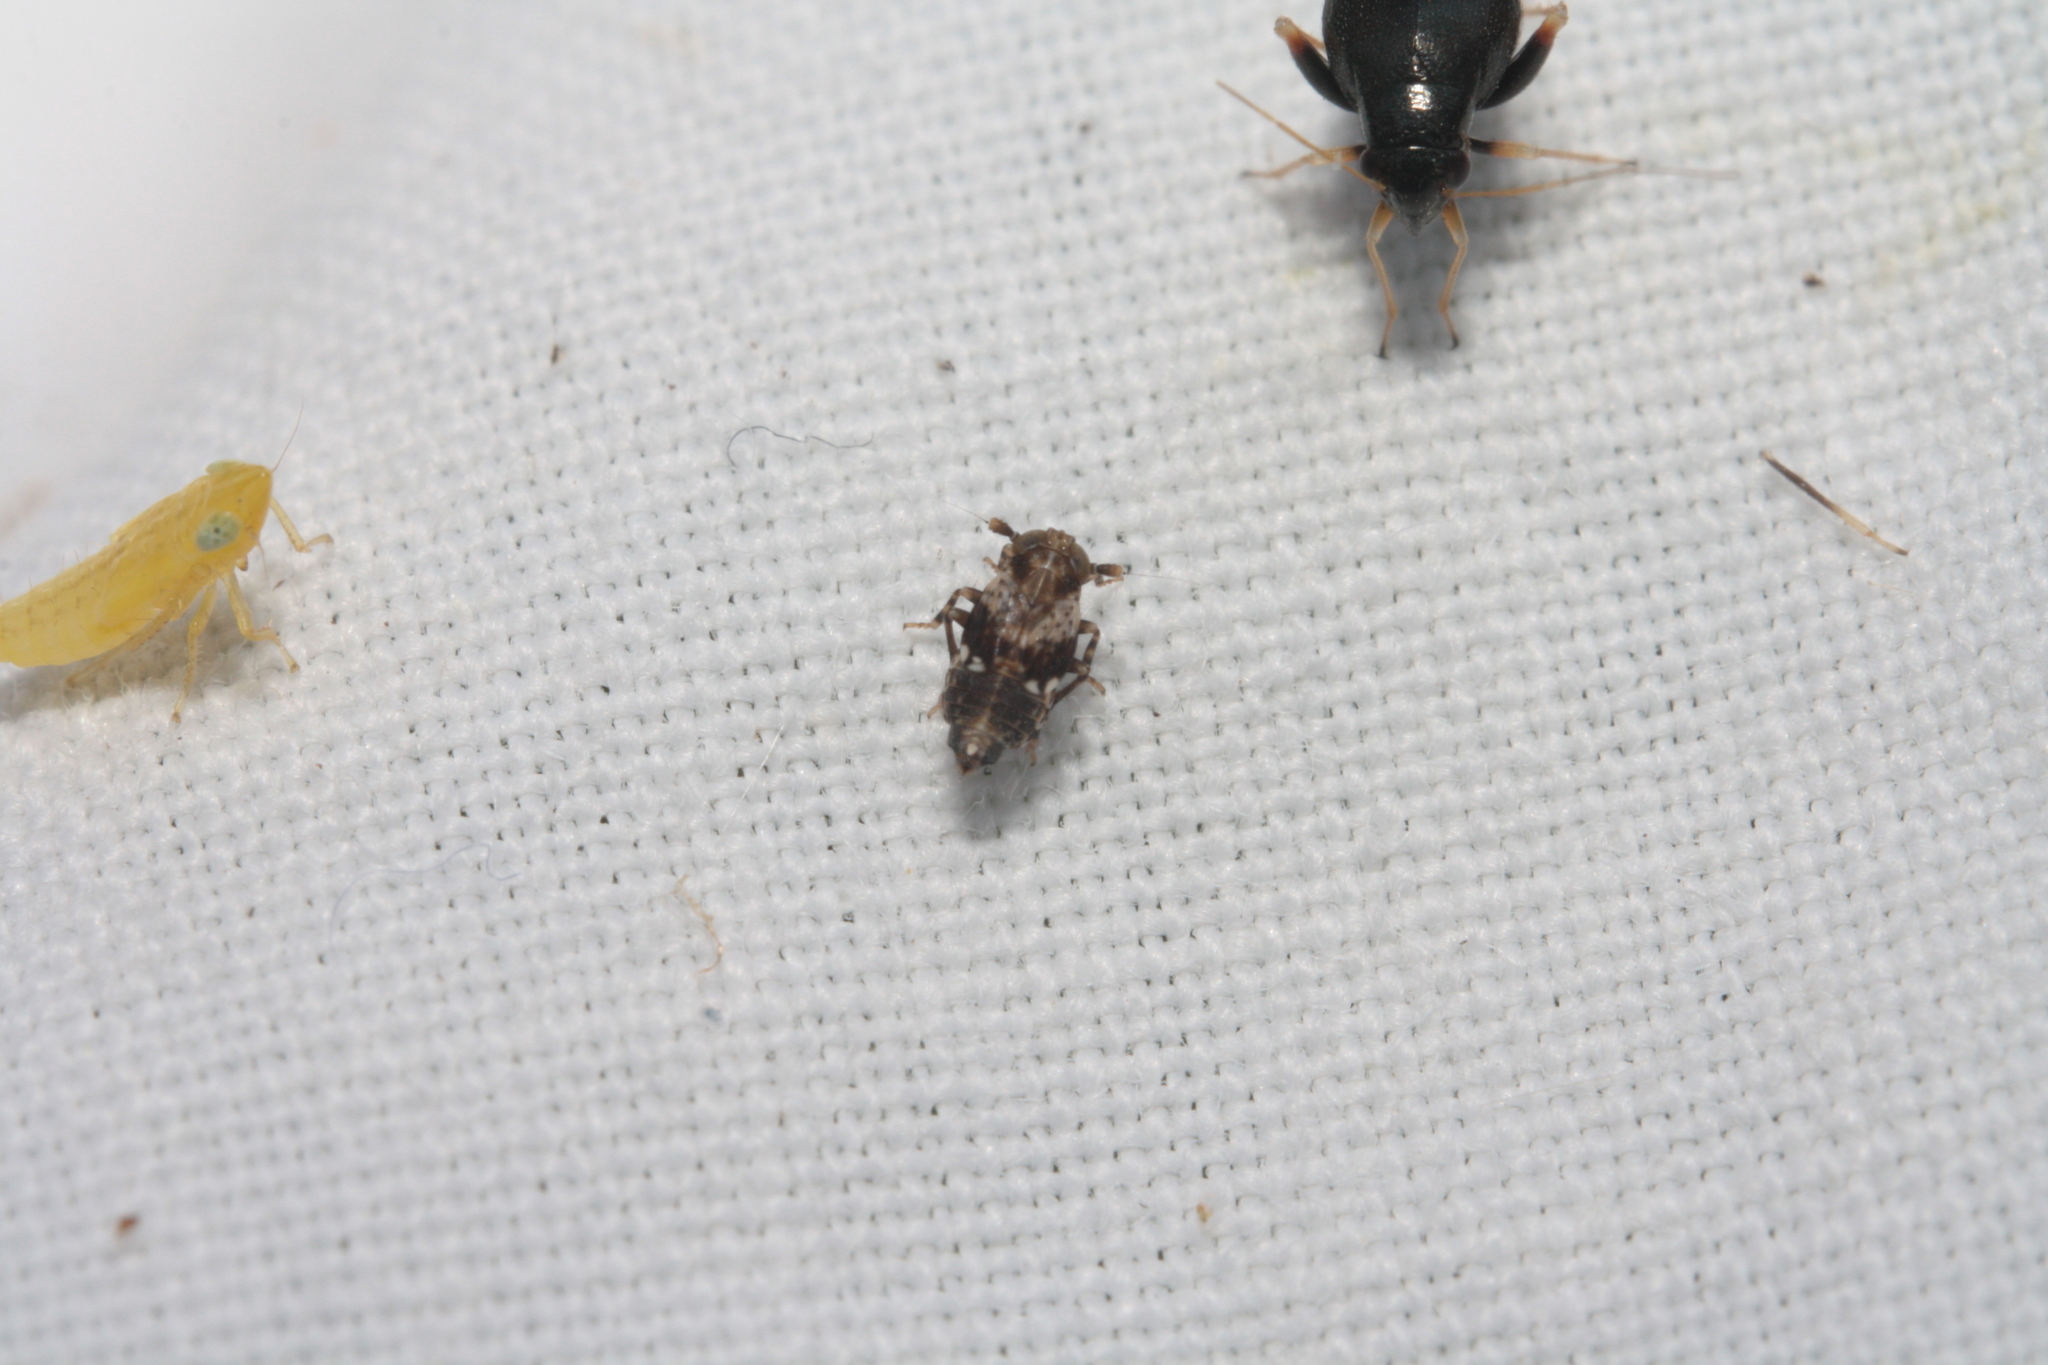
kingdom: Animalia
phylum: Arthropoda
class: Insecta
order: Hemiptera
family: Delphacidae
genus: Euconomelus
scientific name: Euconomelus lepidus
